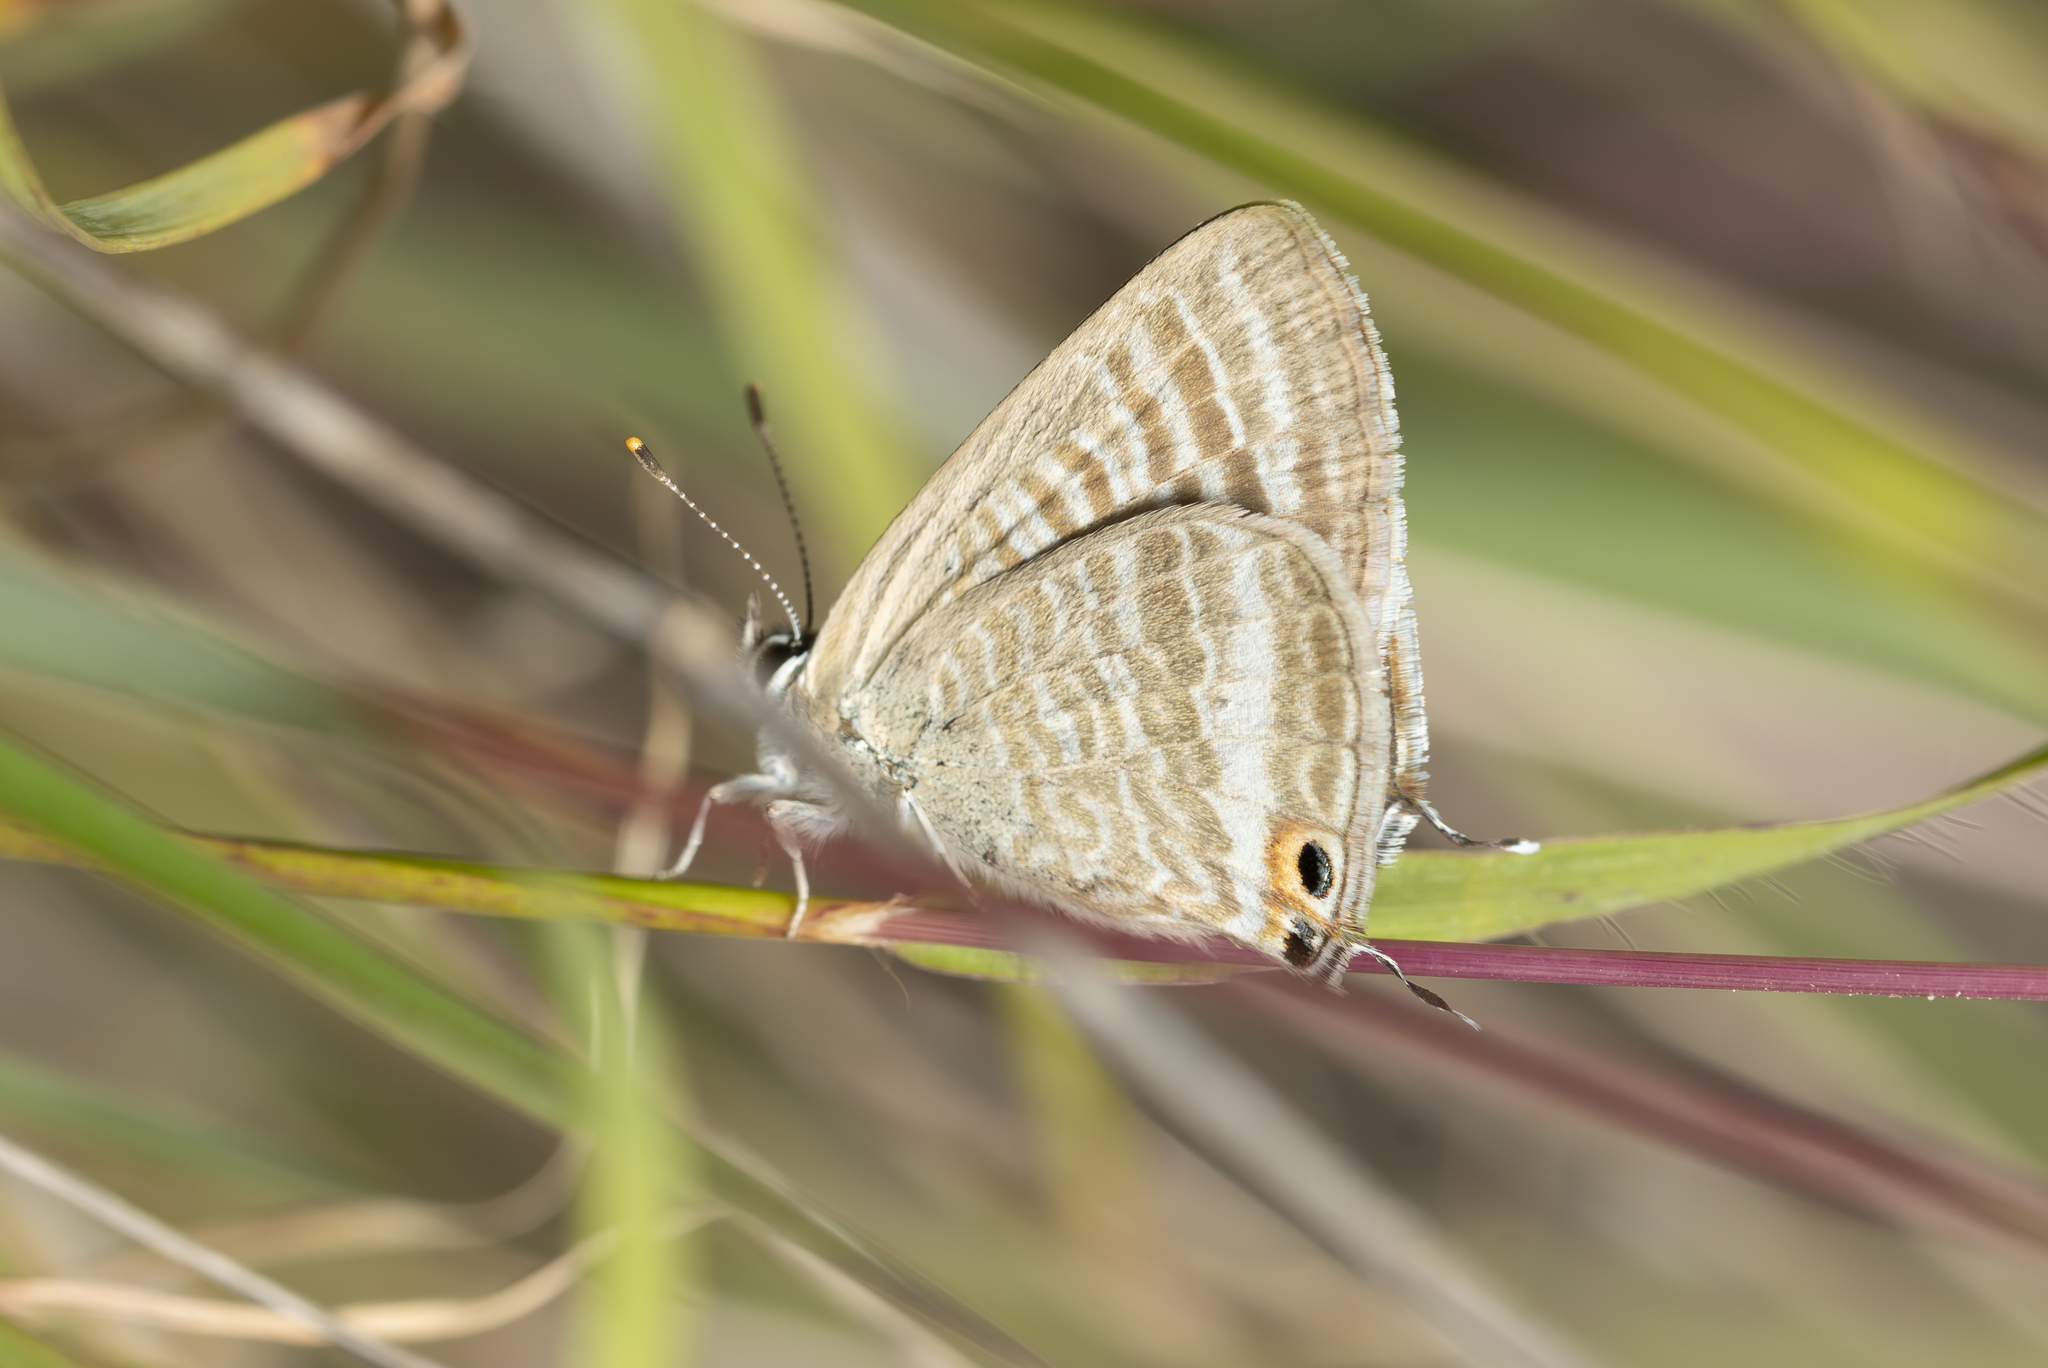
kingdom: Animalia
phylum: Arthropoda
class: Insecta
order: Lepidoptera
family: Lycaenidae
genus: Lampides
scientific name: Lampides boeticus
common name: Long-tailed blue
